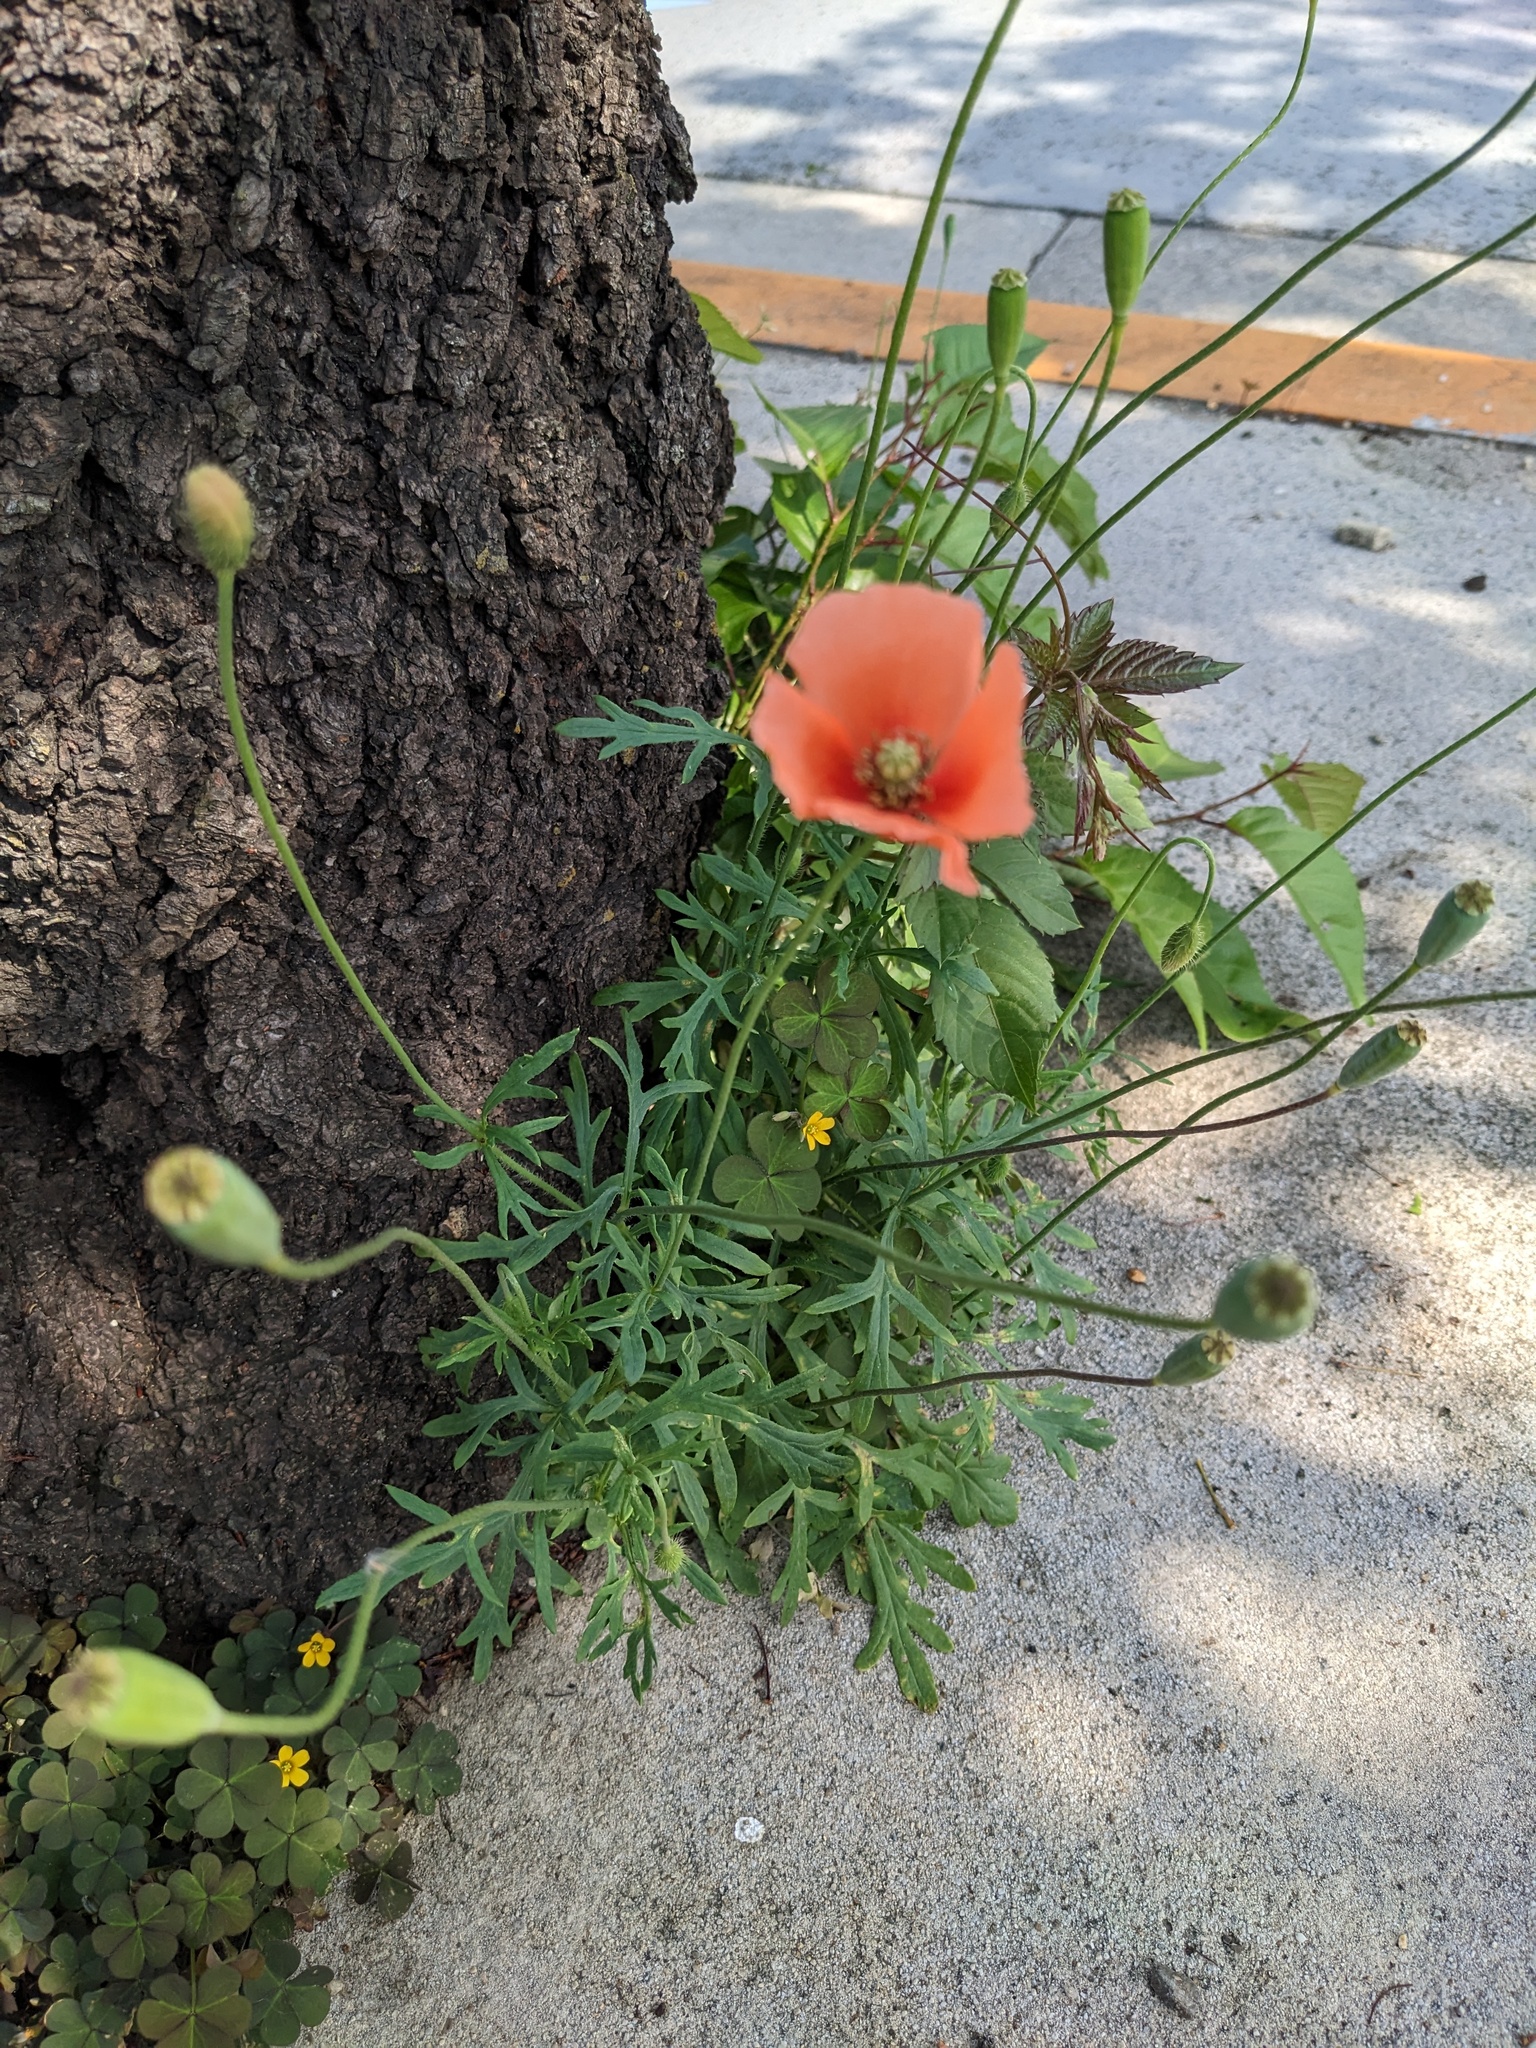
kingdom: Plantae
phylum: Tracheophyta
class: Magnoliopsida
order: Ranunculales
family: Papaveraceae
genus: Papaver
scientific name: Papaver dubium
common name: Long-headed poppy
